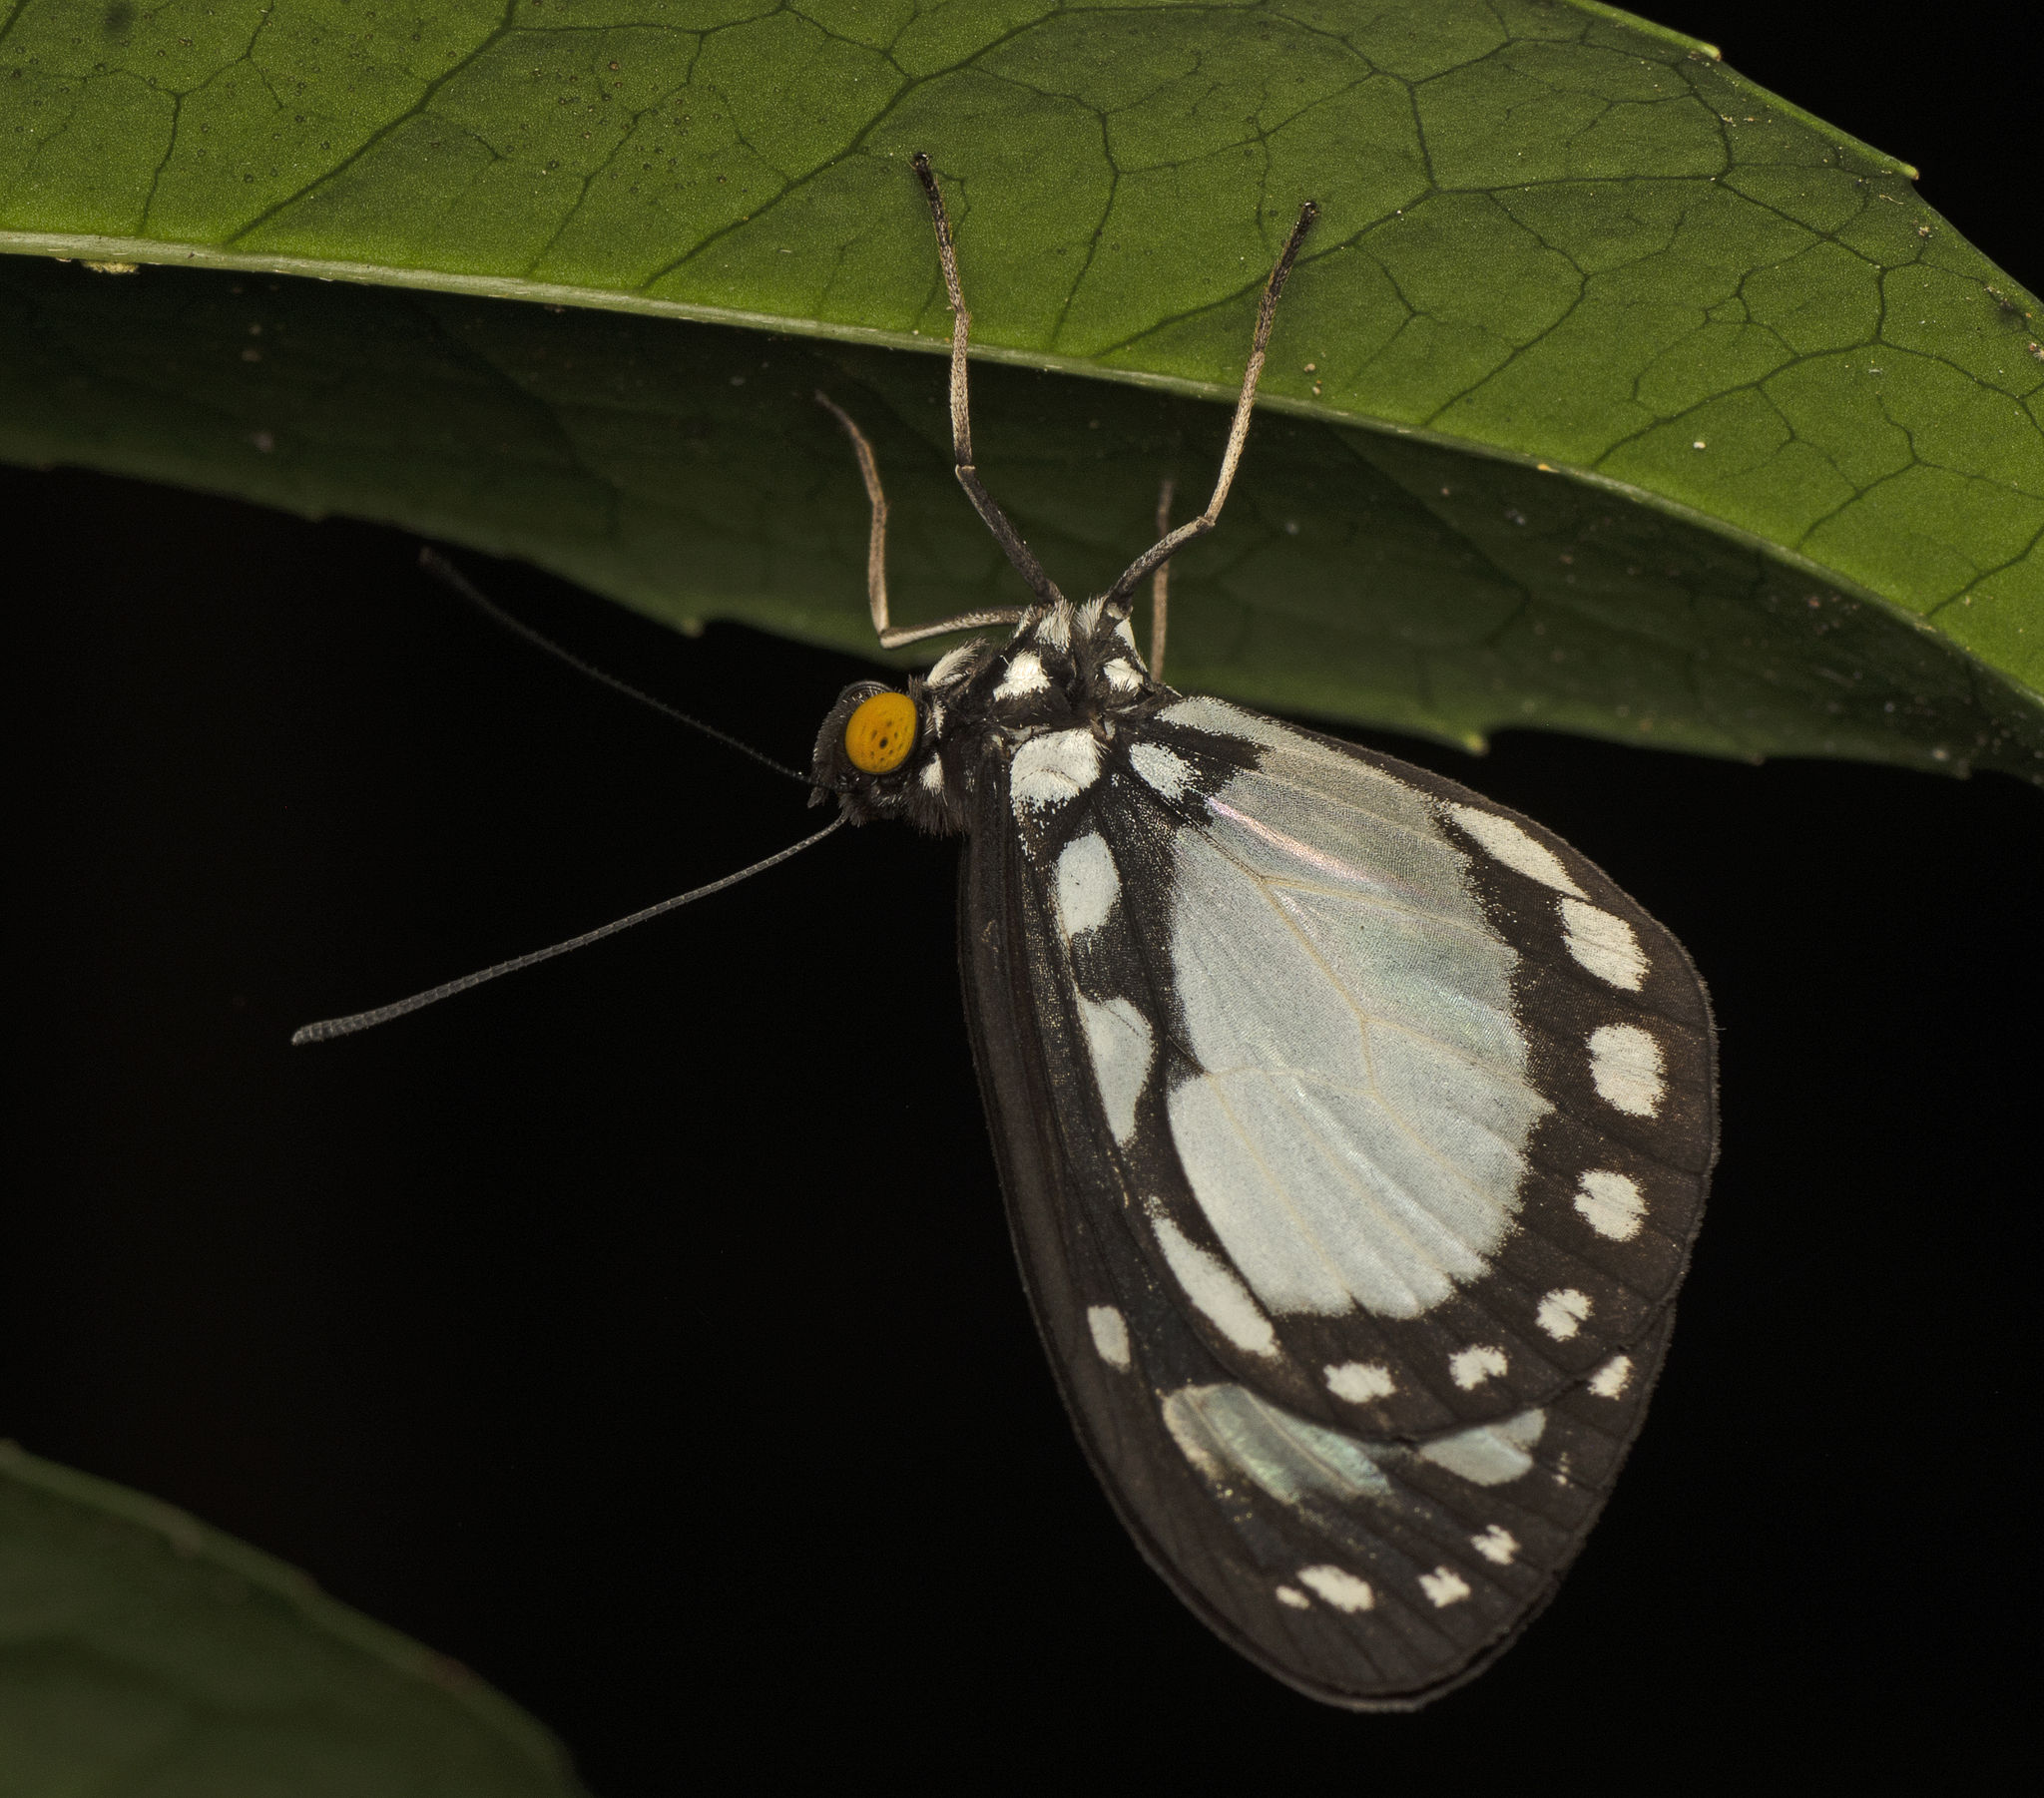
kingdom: Animalia
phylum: Arthropoda
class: Insecta
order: Lepidoptera
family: Nymphalidae
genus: Tellervo
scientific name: Tellervo zoilus
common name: Hamadryad
